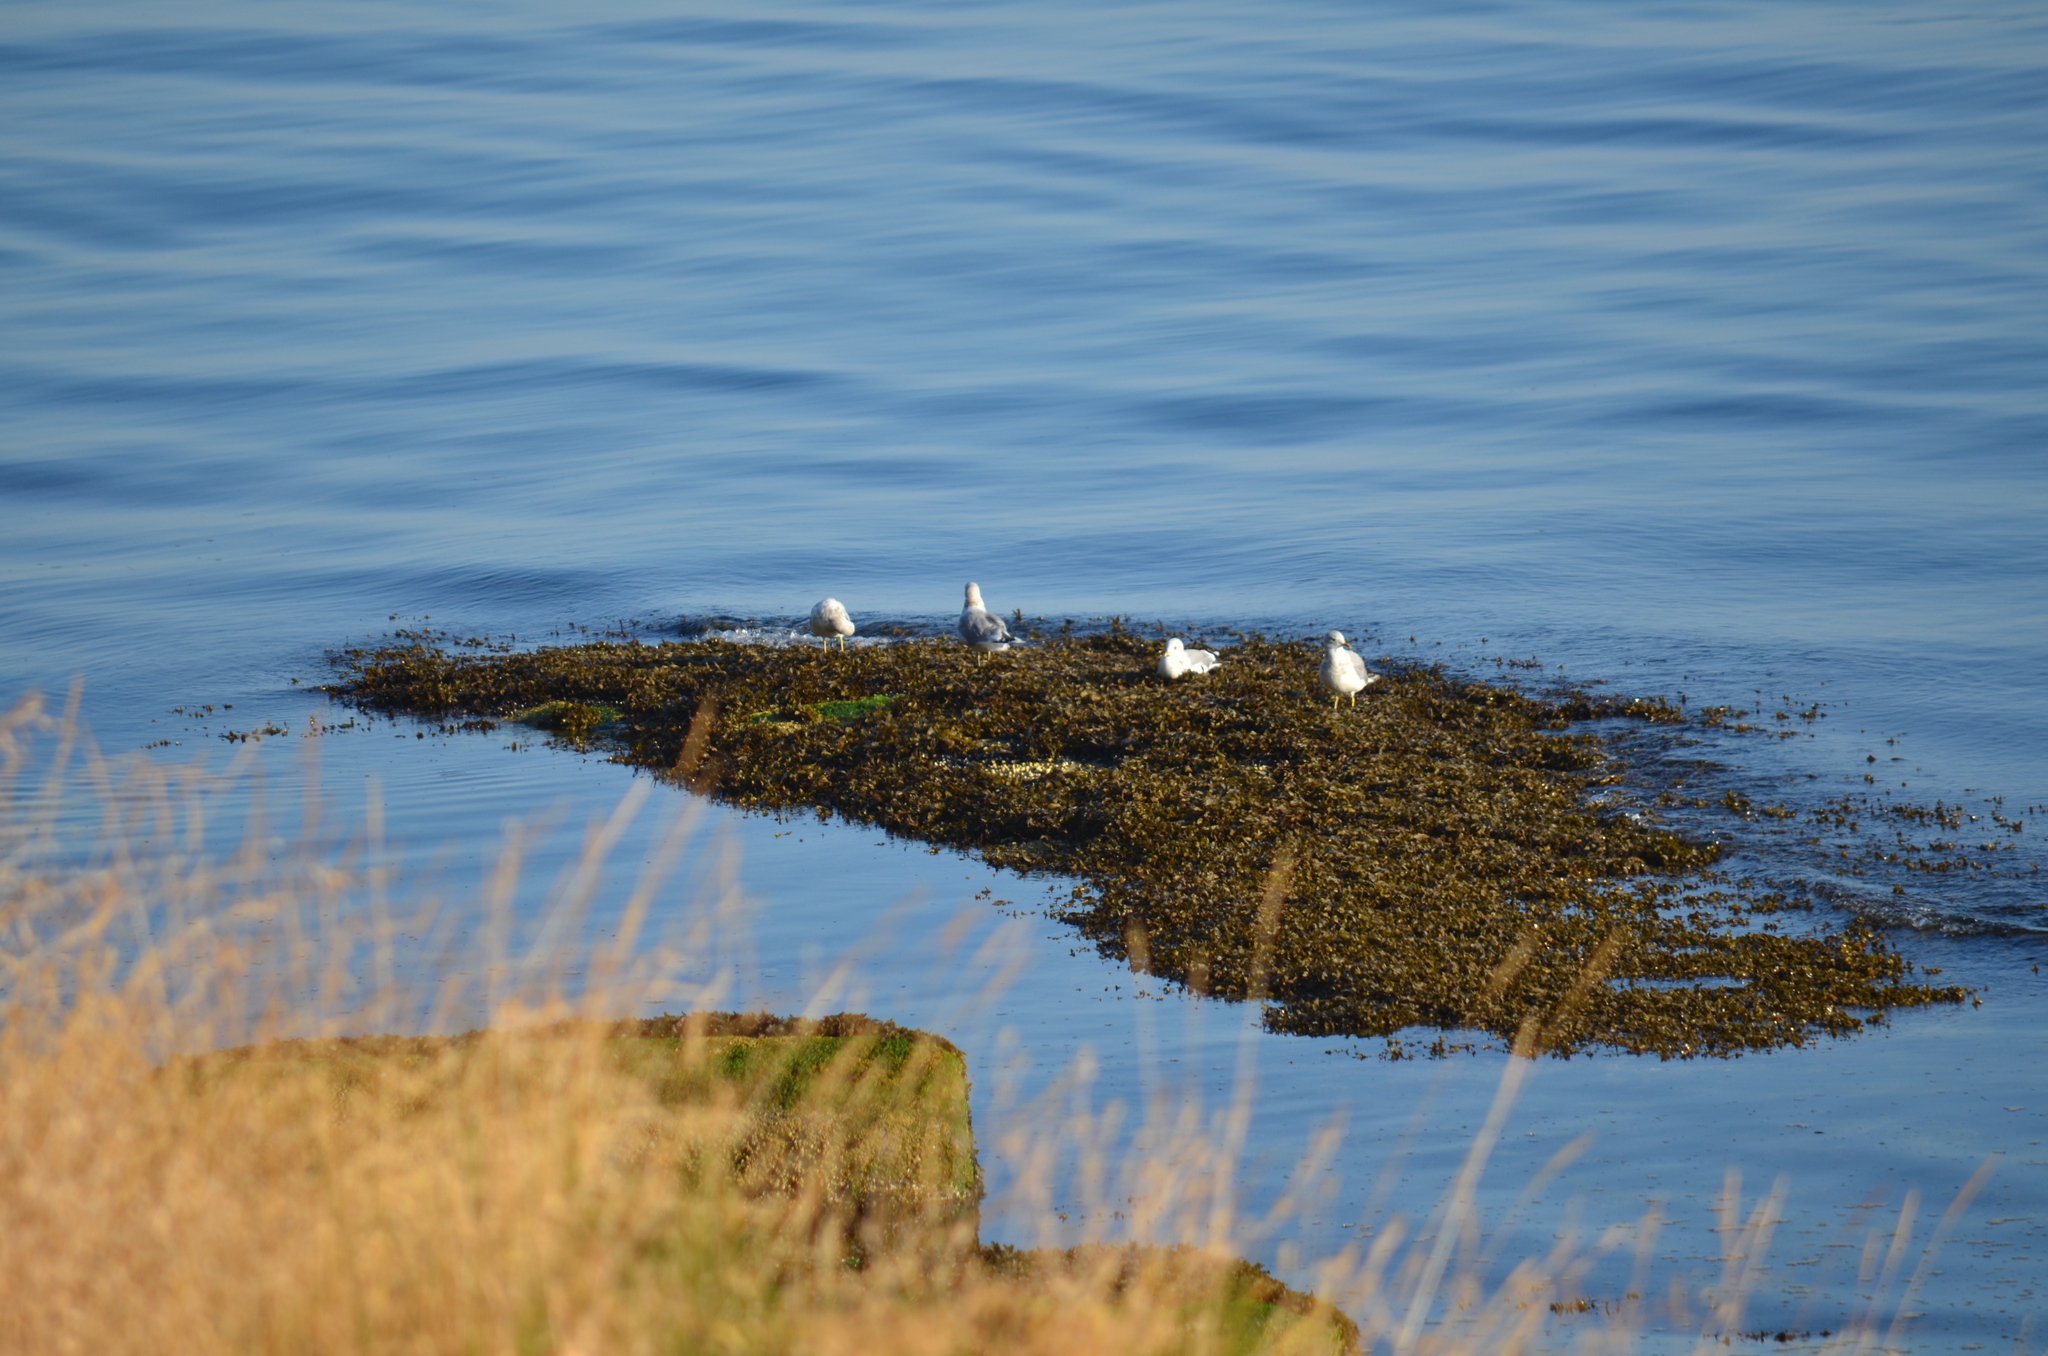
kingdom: Animalia
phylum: Chordata
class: Aves
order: Charadriiformes
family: Laridae
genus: Larus
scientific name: Larus brachyrhynchus
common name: Short-billed gull
